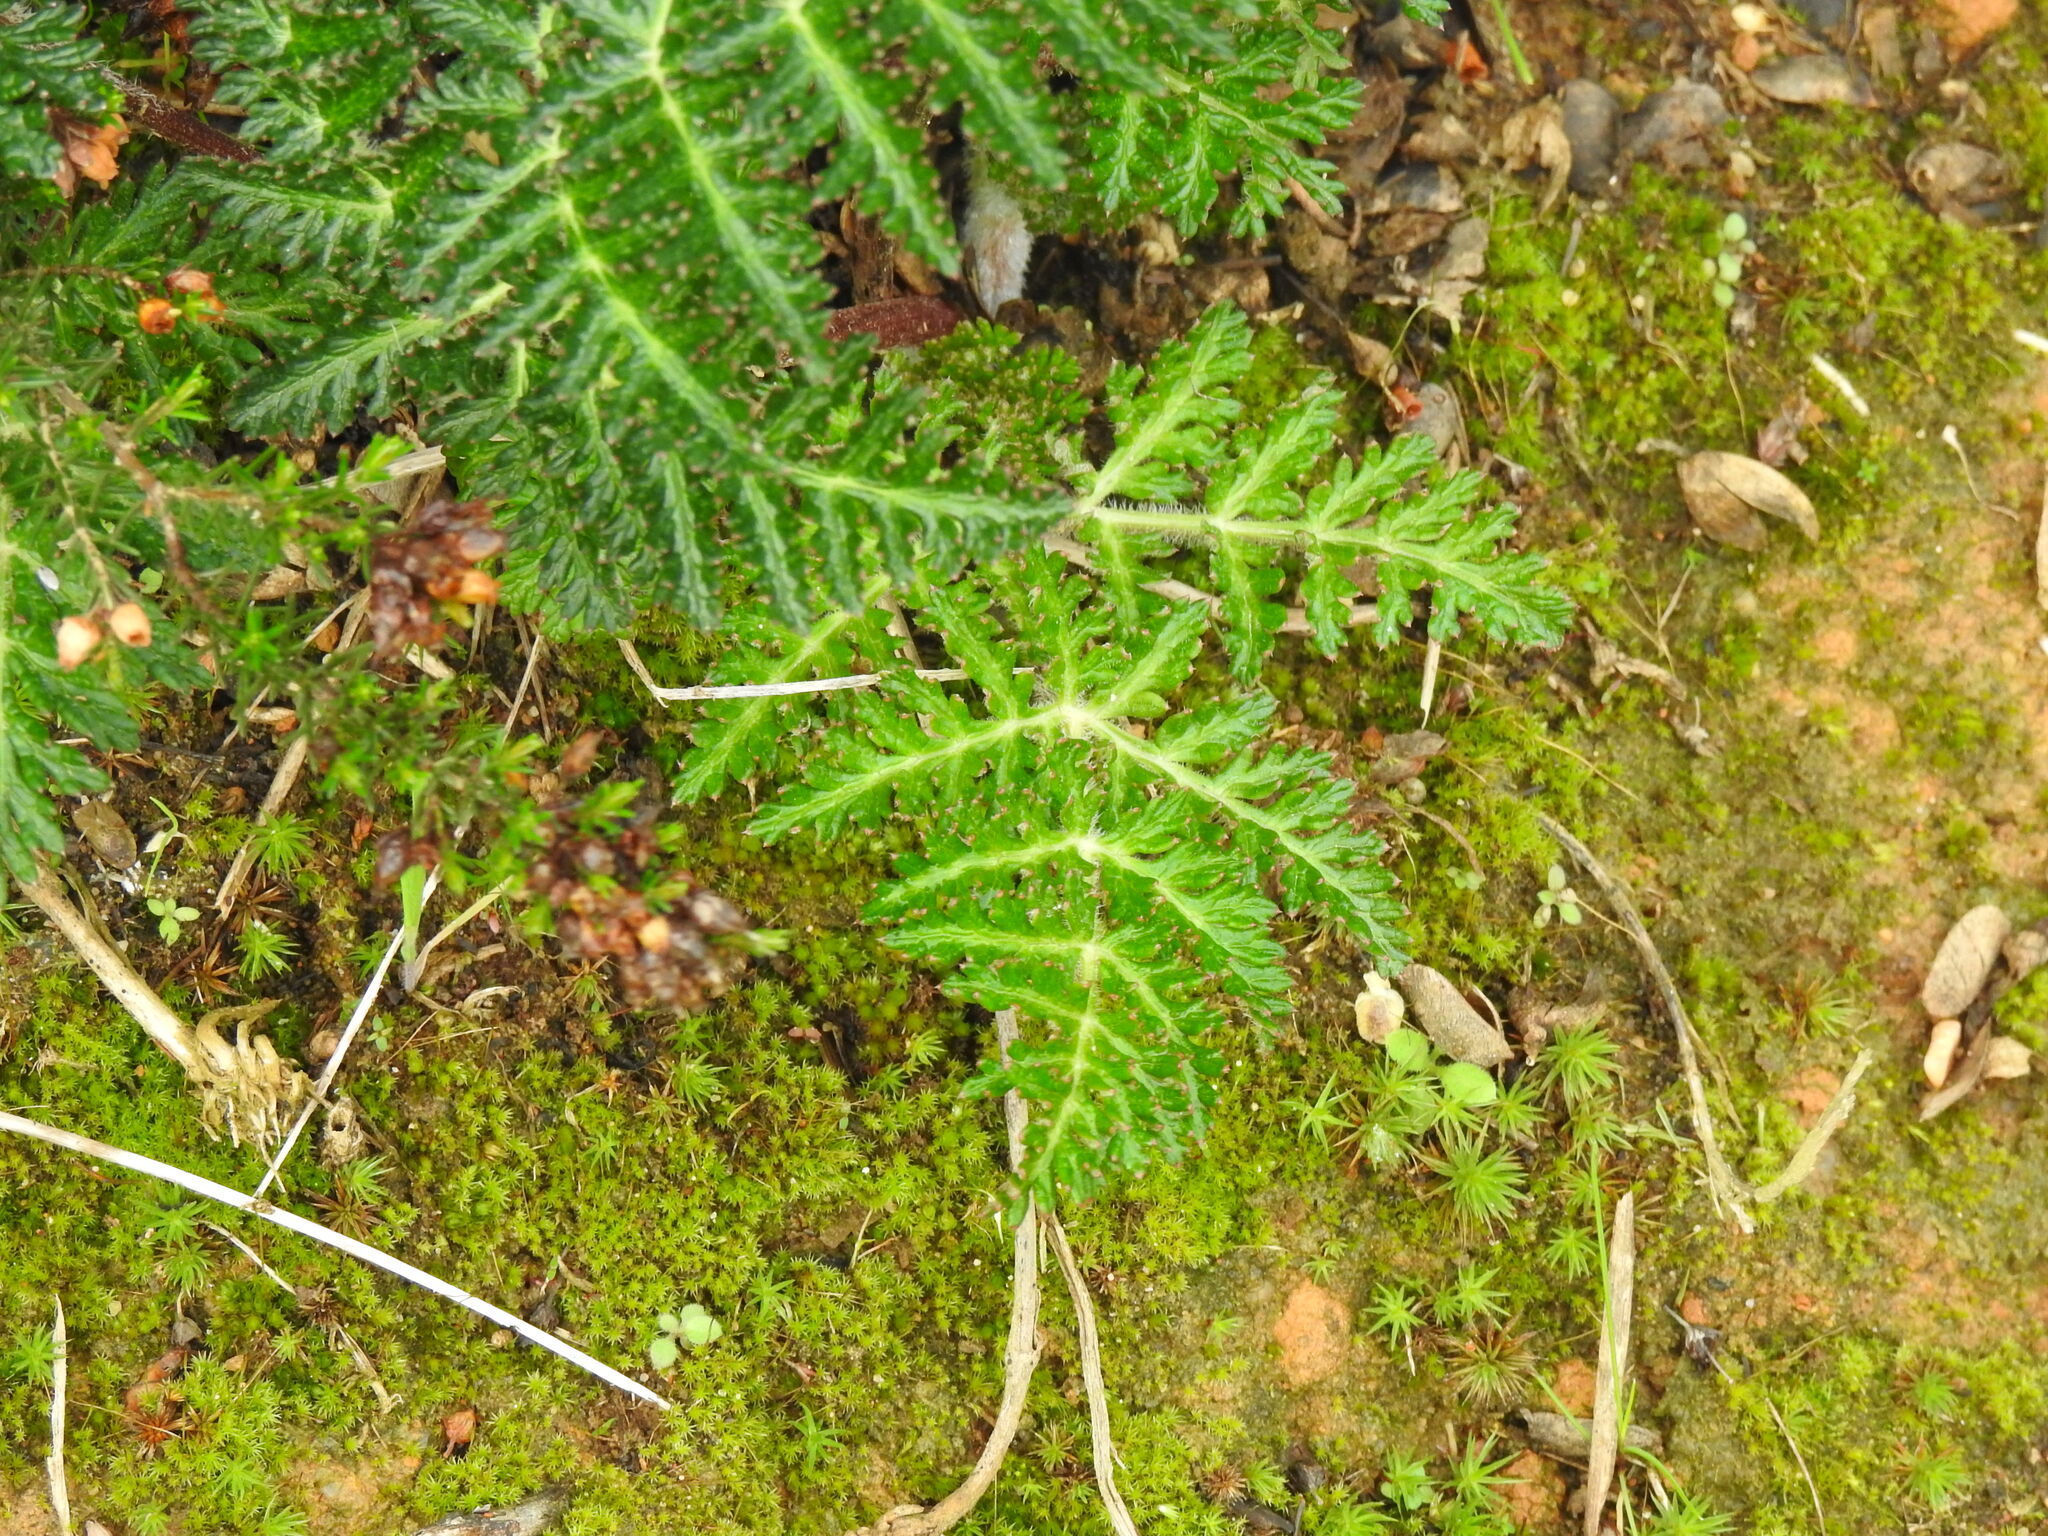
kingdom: Plantae
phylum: Tracheophyta
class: Magnoliopsida
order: Apiales
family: Apiaceae
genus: Thapsia
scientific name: Thapsia villosa
